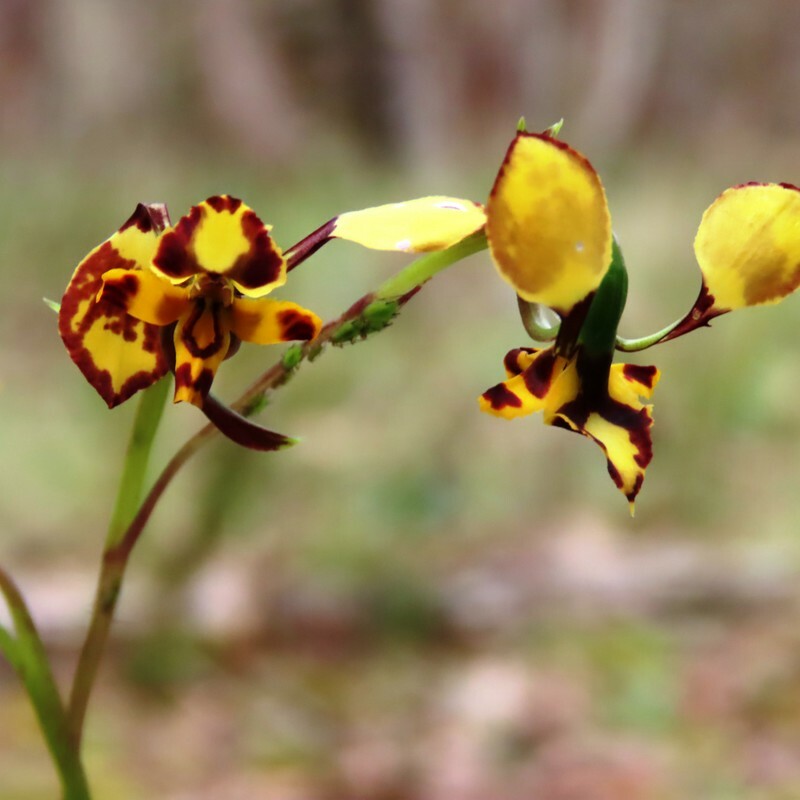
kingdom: Plantae
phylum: Tracheophyta
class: Liliopsida
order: Asparagales
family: Orchidaceae
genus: Diuris
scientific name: Diuris pardina
